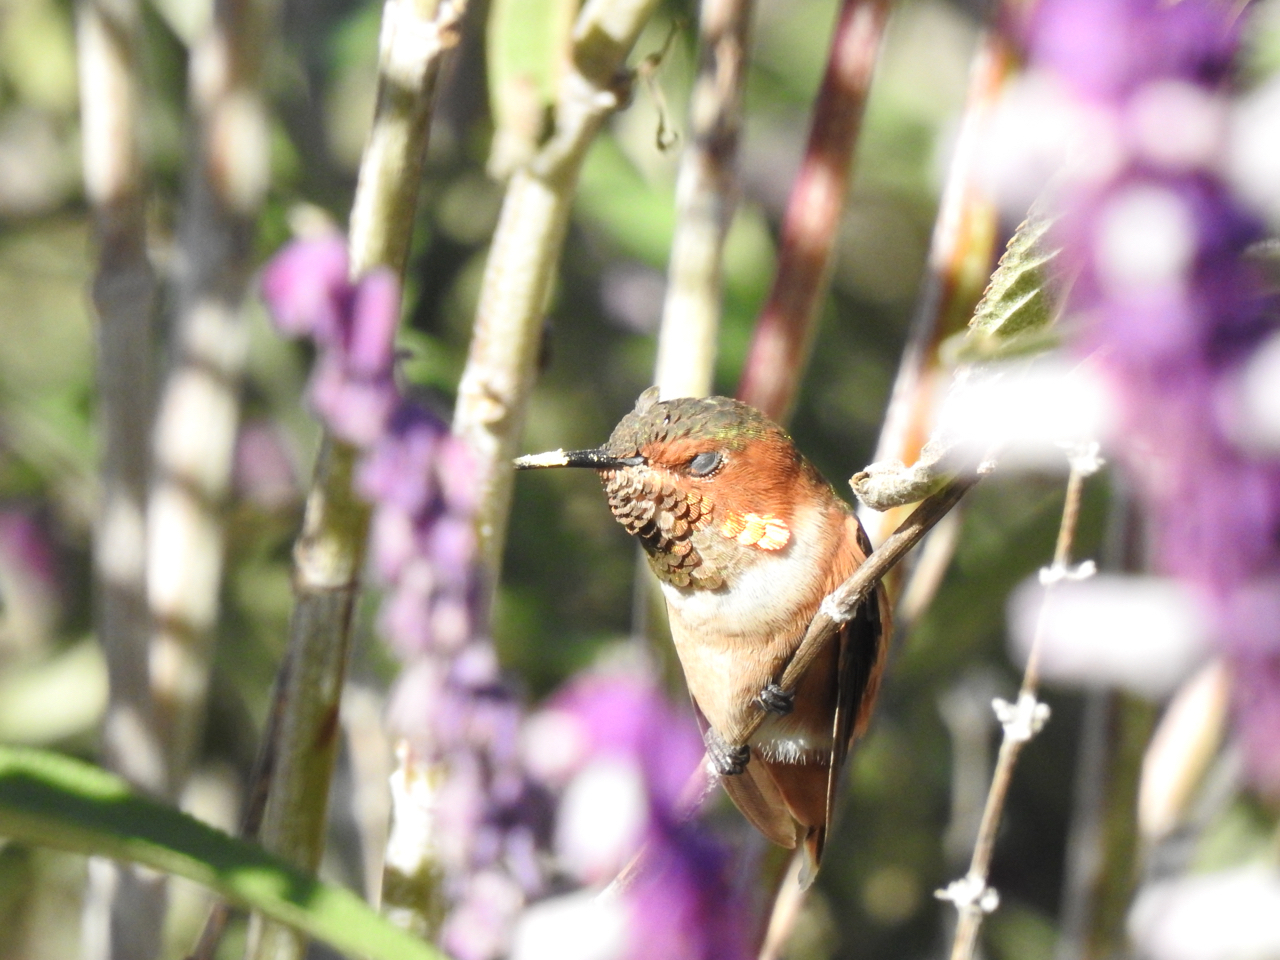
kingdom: Animalia
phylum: Chordata
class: Aves
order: Apodiformes
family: Trochilidae
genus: Selasphorus
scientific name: Selasphorus sasin
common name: Allen's hummingbird
